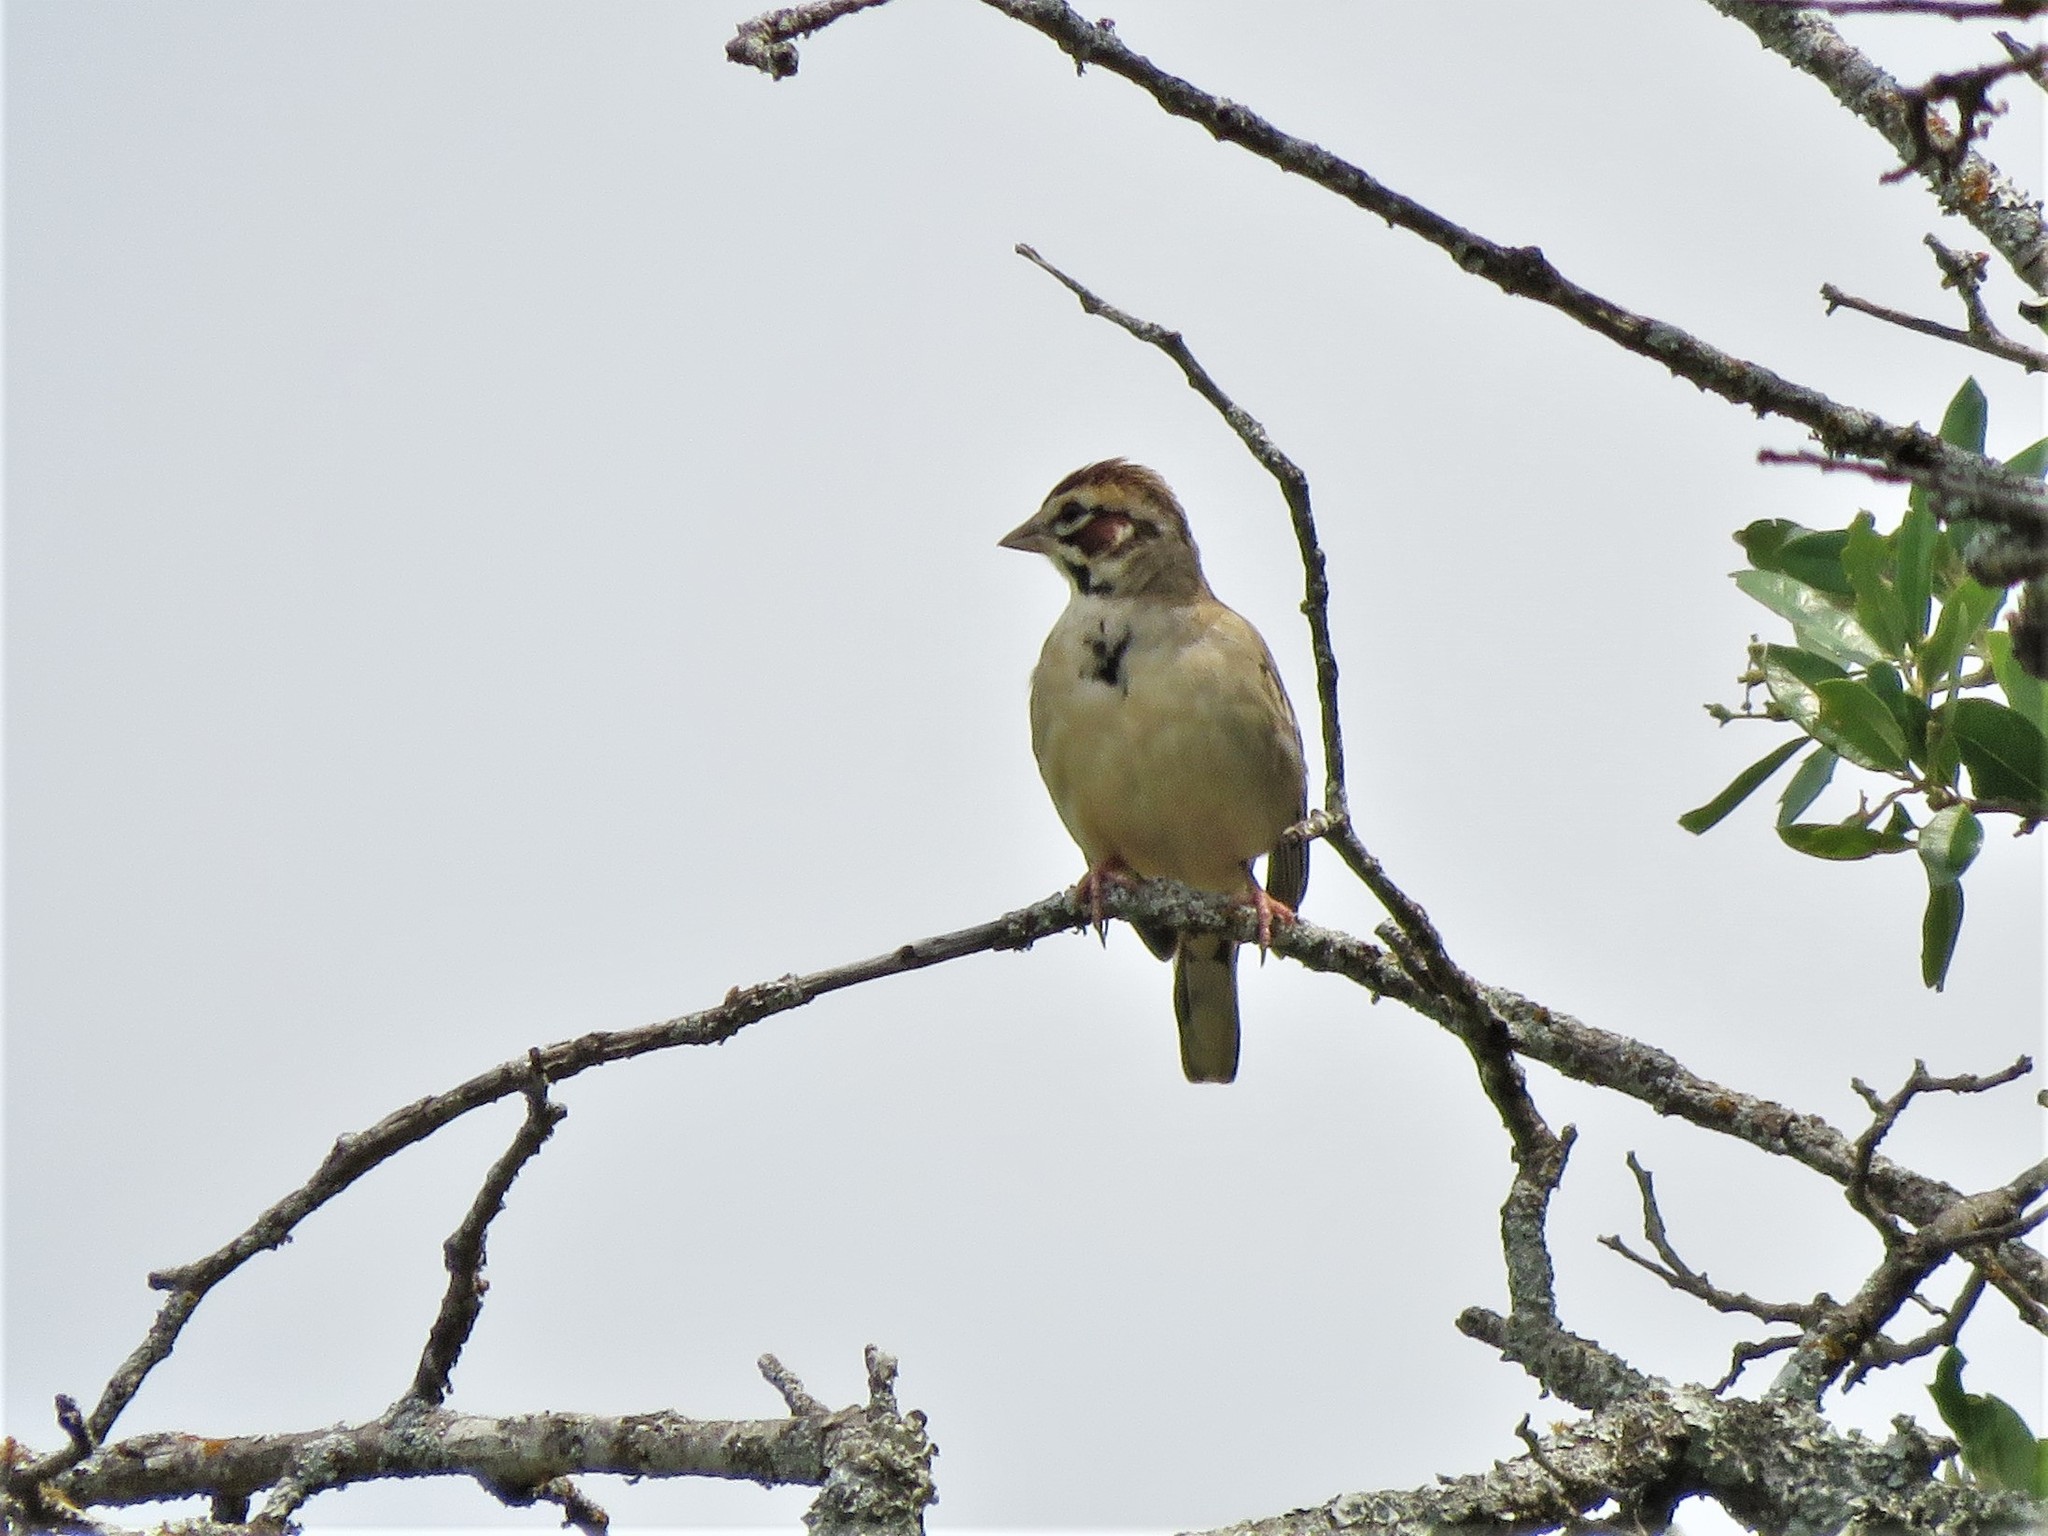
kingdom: Animalia
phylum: Chordata
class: Aves
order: Passeriformes
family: Passerellidae
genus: Chondestes
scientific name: Chondestes grammacus
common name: Lark sparrow
